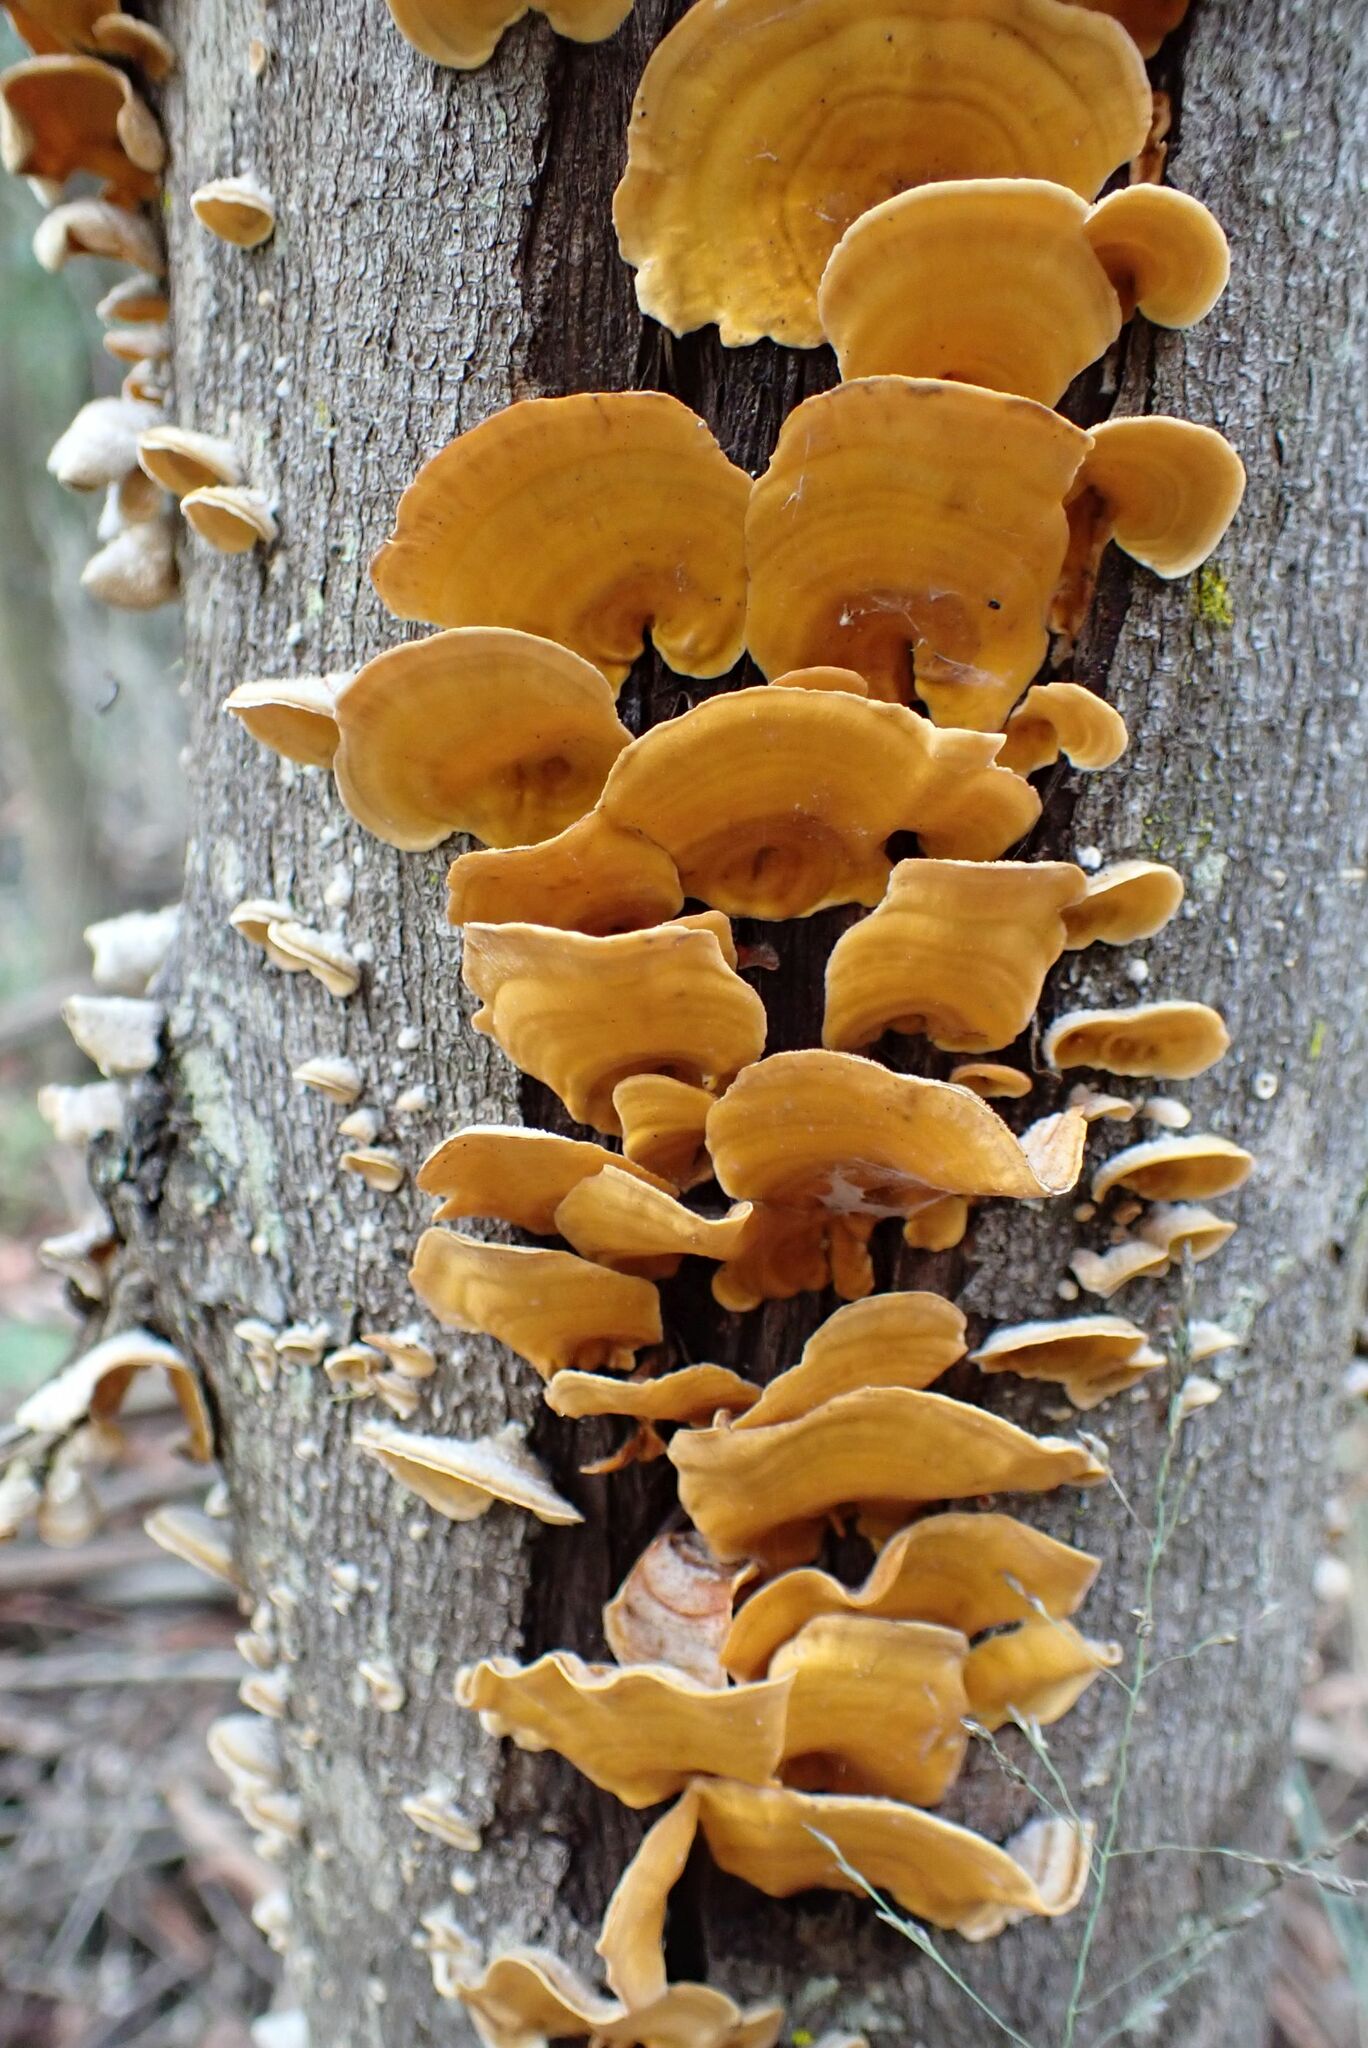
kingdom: Fungi
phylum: Basidiomycota
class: Agaricomycetes
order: Russulales
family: Stereaceae
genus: Stereum
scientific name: Stereum hirsutum
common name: Hairy curtain crust
